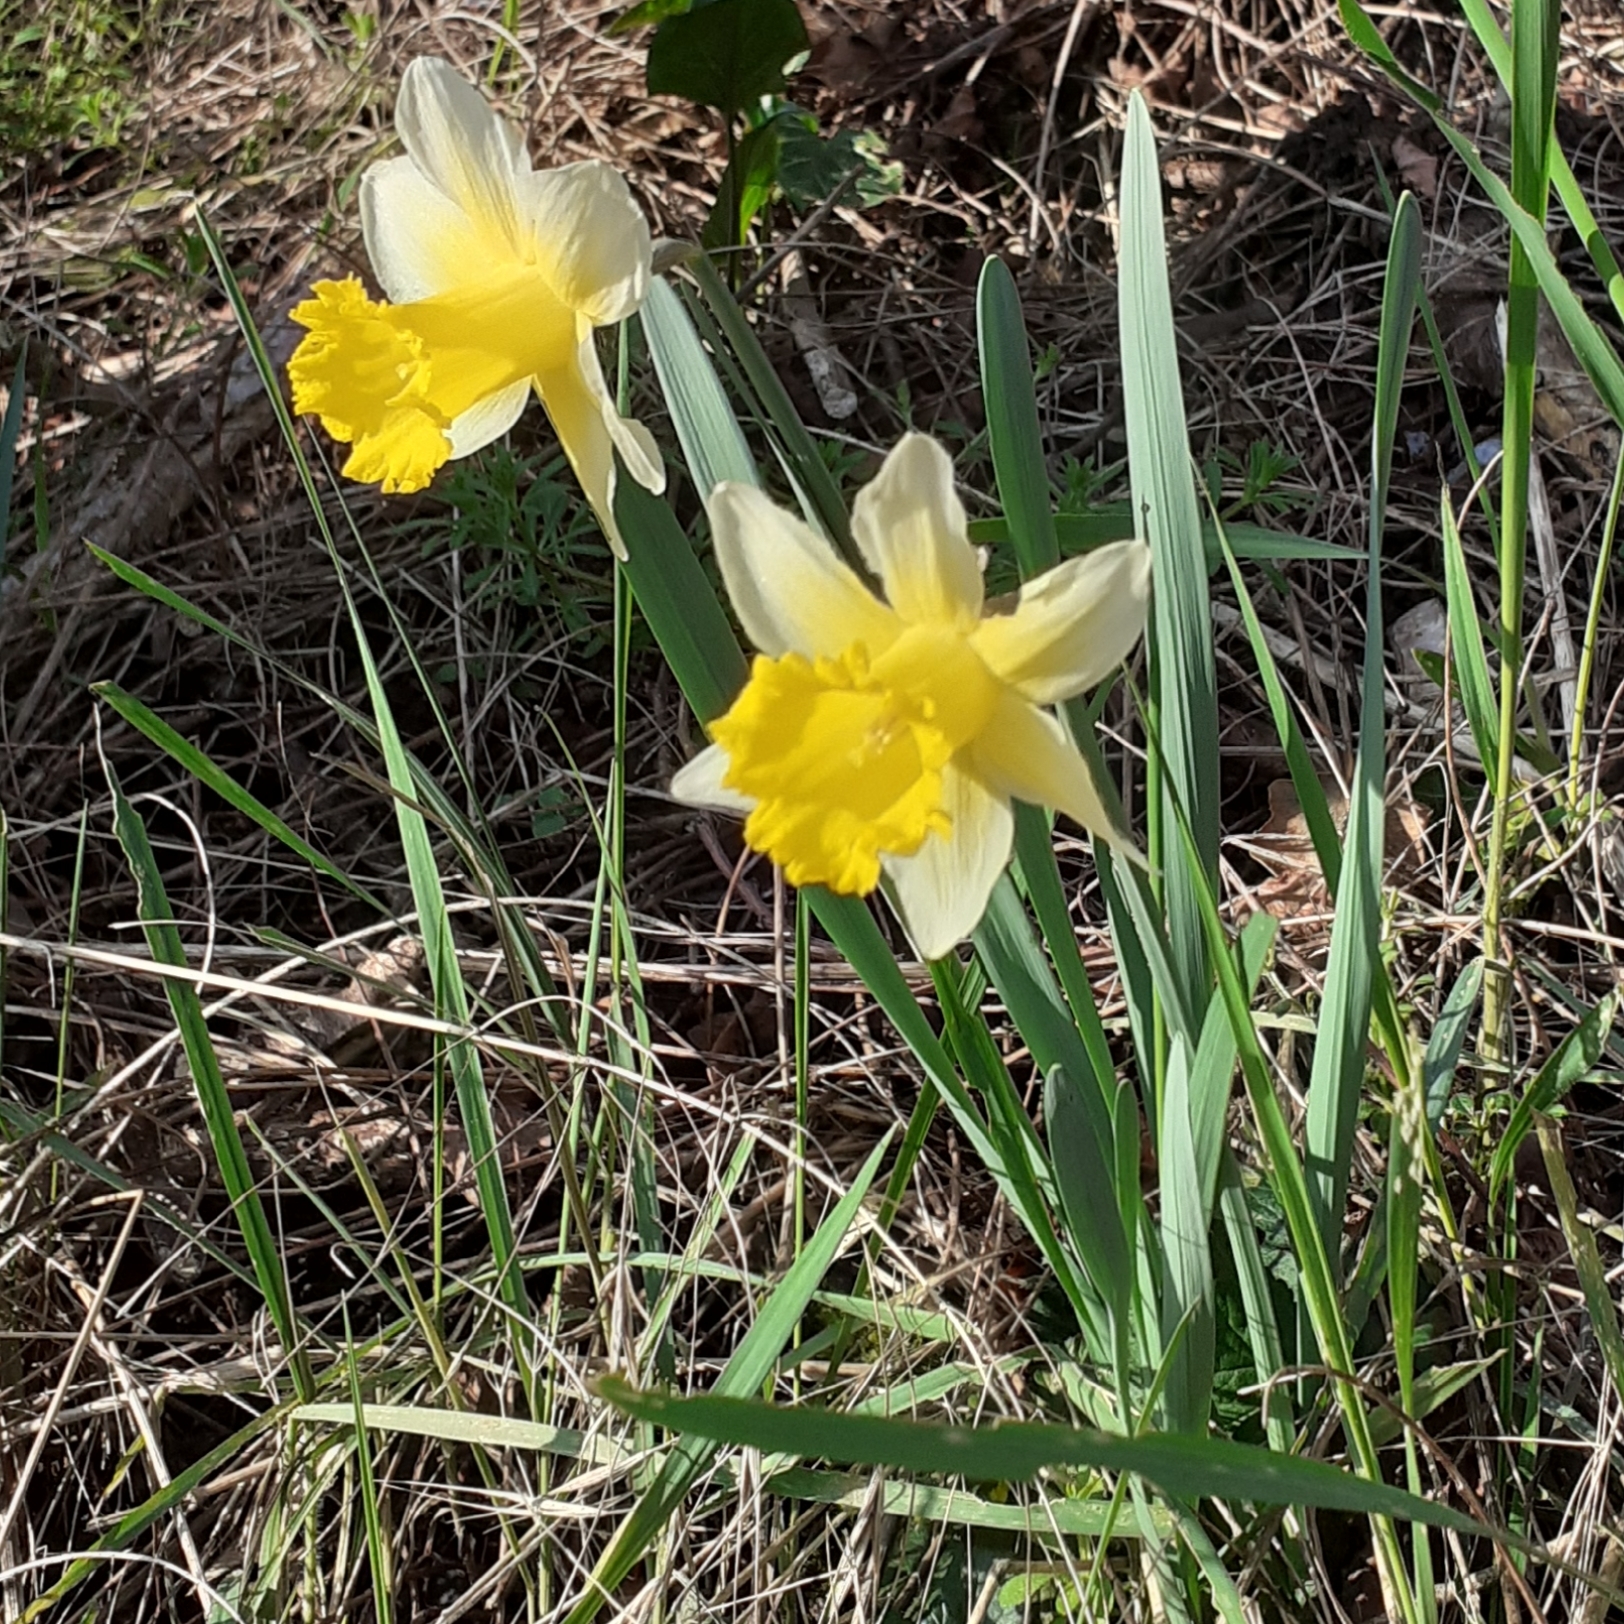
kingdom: Plantae
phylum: Tracheophyta
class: Liliopsida
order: Asparagales
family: Amaryllidaceae
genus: Narcissus
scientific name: Narcissus pseudonarcissus
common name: Daffodil
